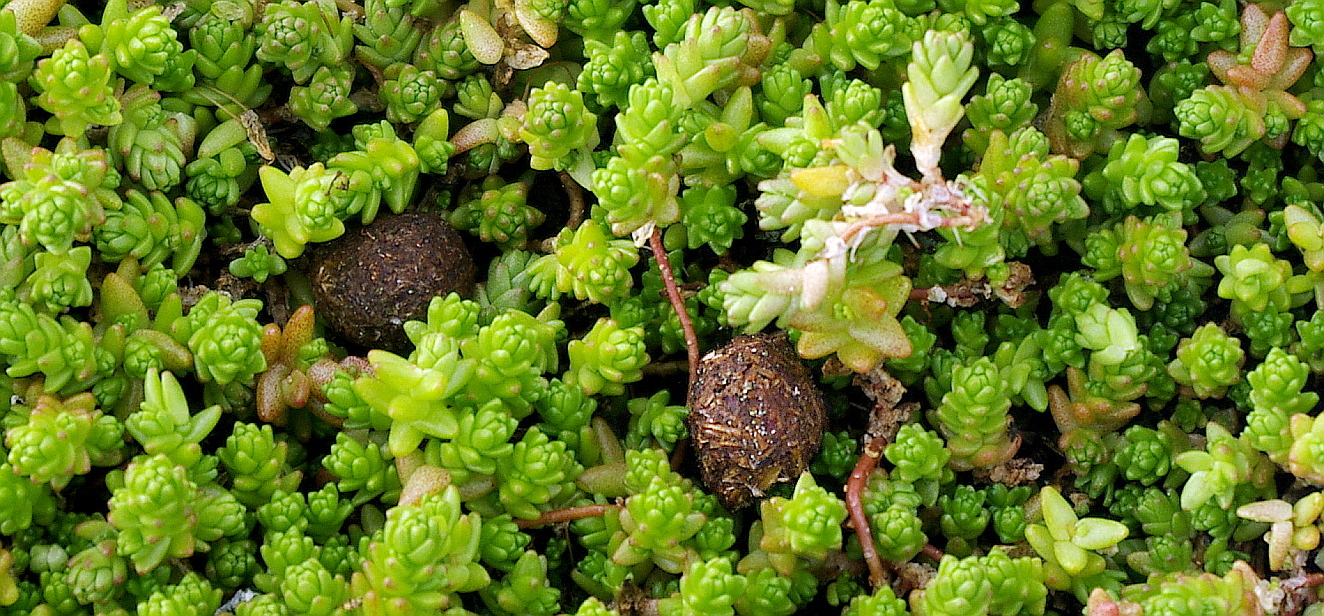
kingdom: Plantae
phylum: Tracheophyta
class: Magnoliopsida
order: Saxifragales
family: Crassulaceae
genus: Sedum
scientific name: Sedum acre
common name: Biting stonecrop
